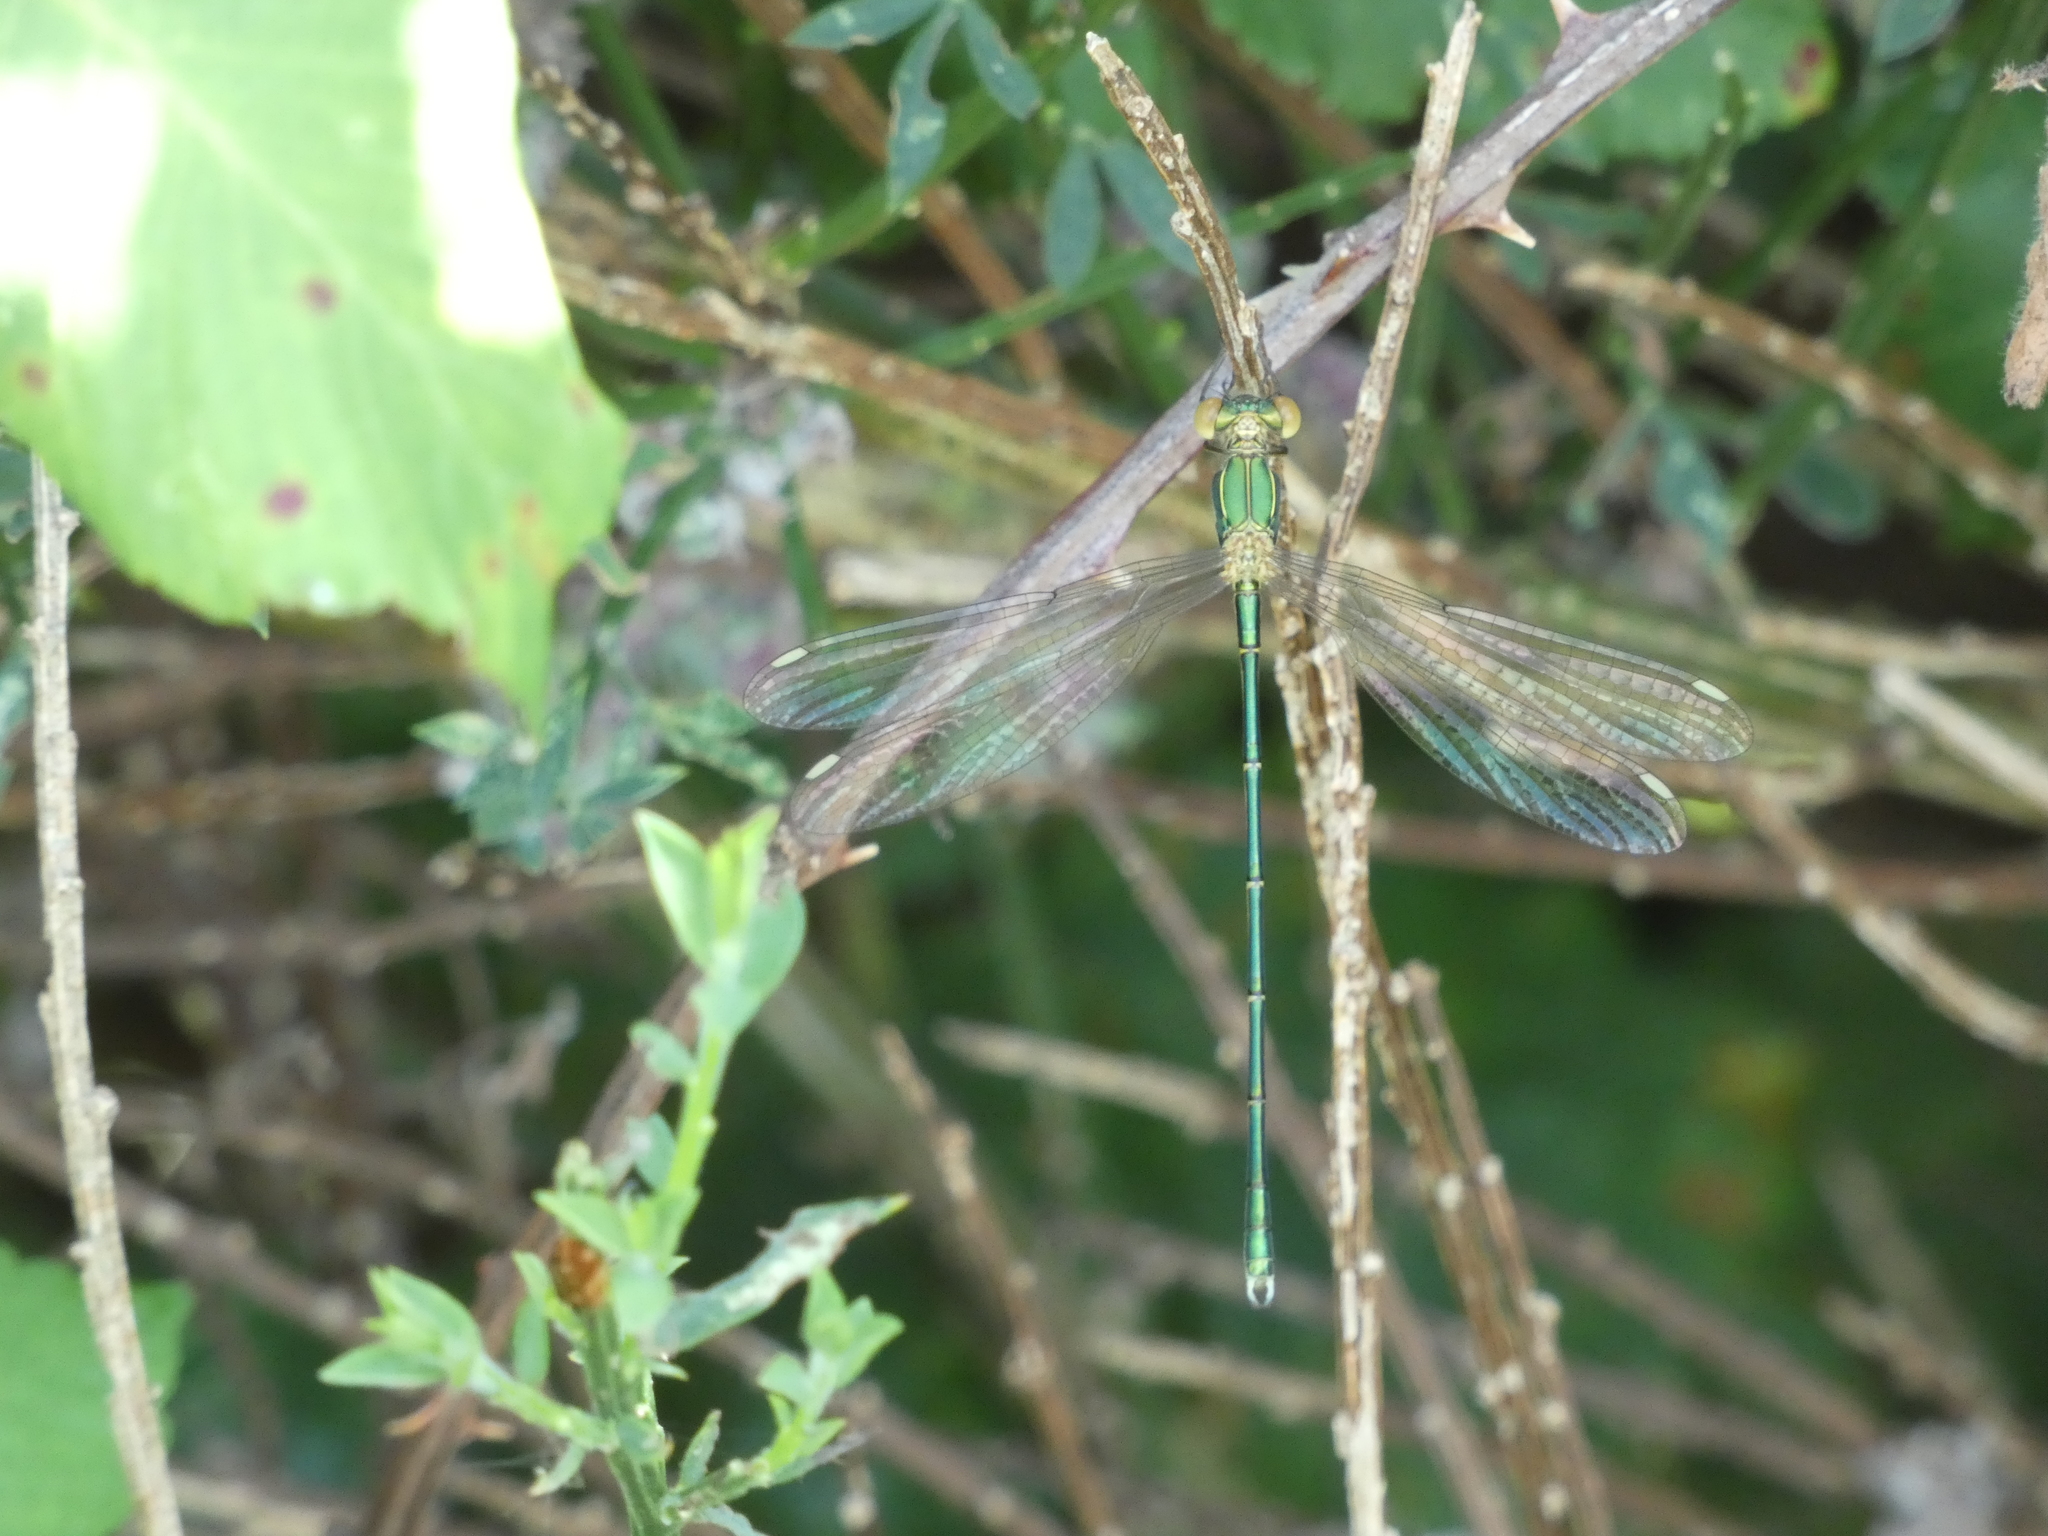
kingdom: Animalia
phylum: Arthropoda
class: Insecta
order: Odonata
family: Lestidae
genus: Chalcolestes
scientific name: Chalcolestes viridis
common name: Green emerald damselfly
